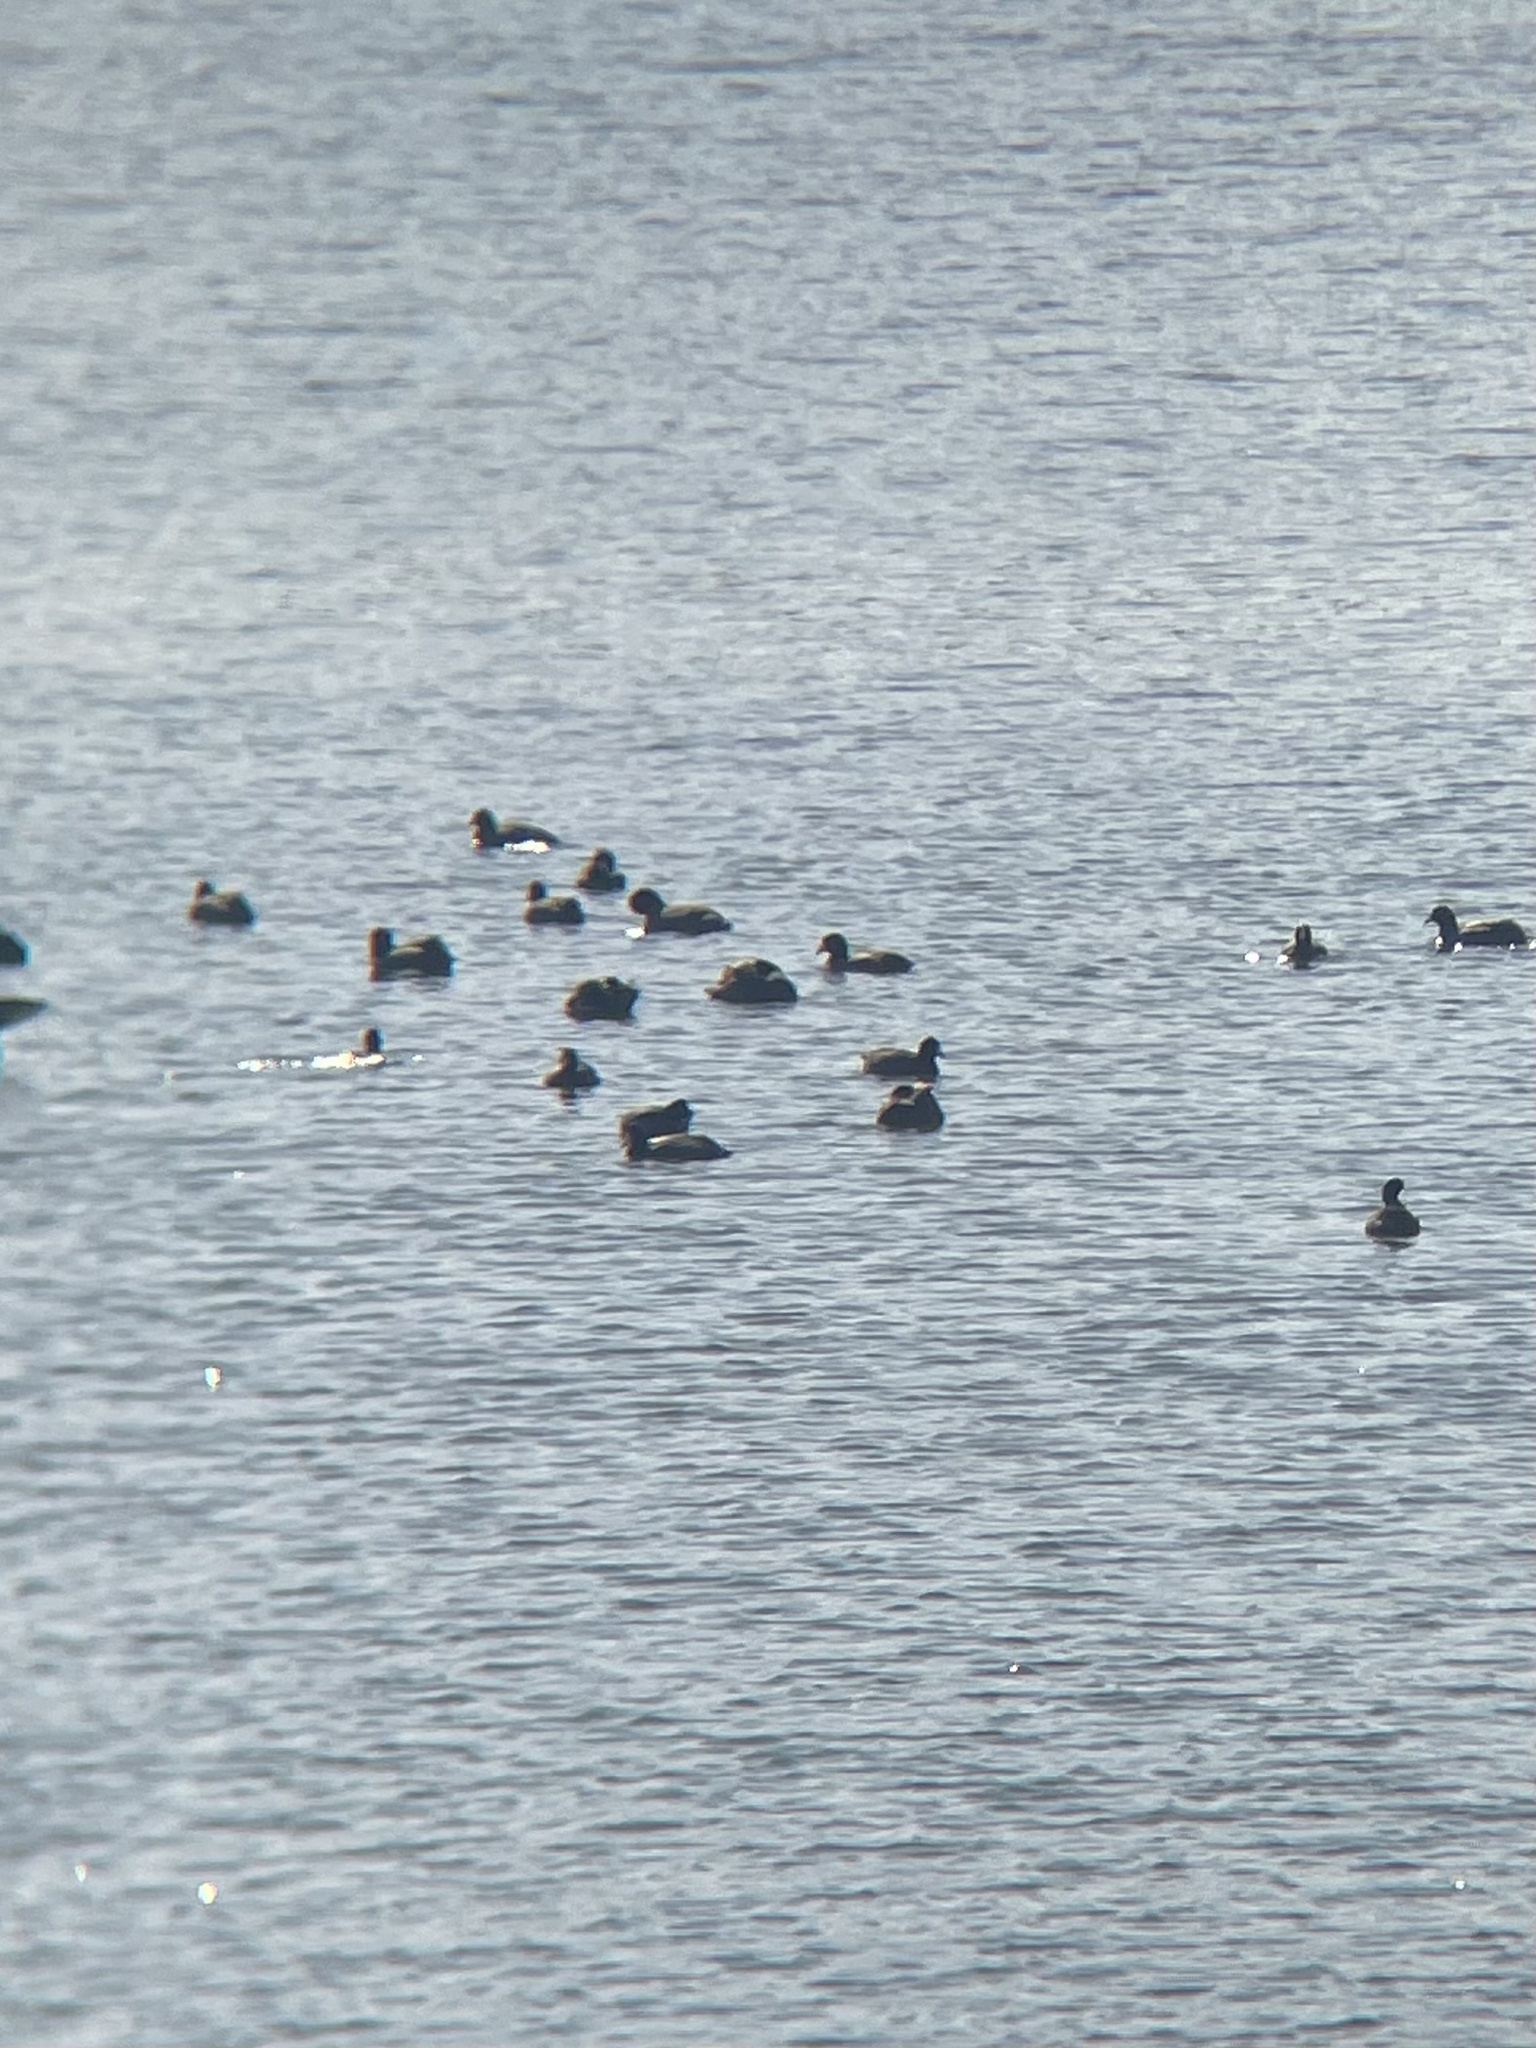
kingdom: Animalia
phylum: Chordata
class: Aves
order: Gruiformes
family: Rallidae
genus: Fulica
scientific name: Fulica americana
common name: American coot
